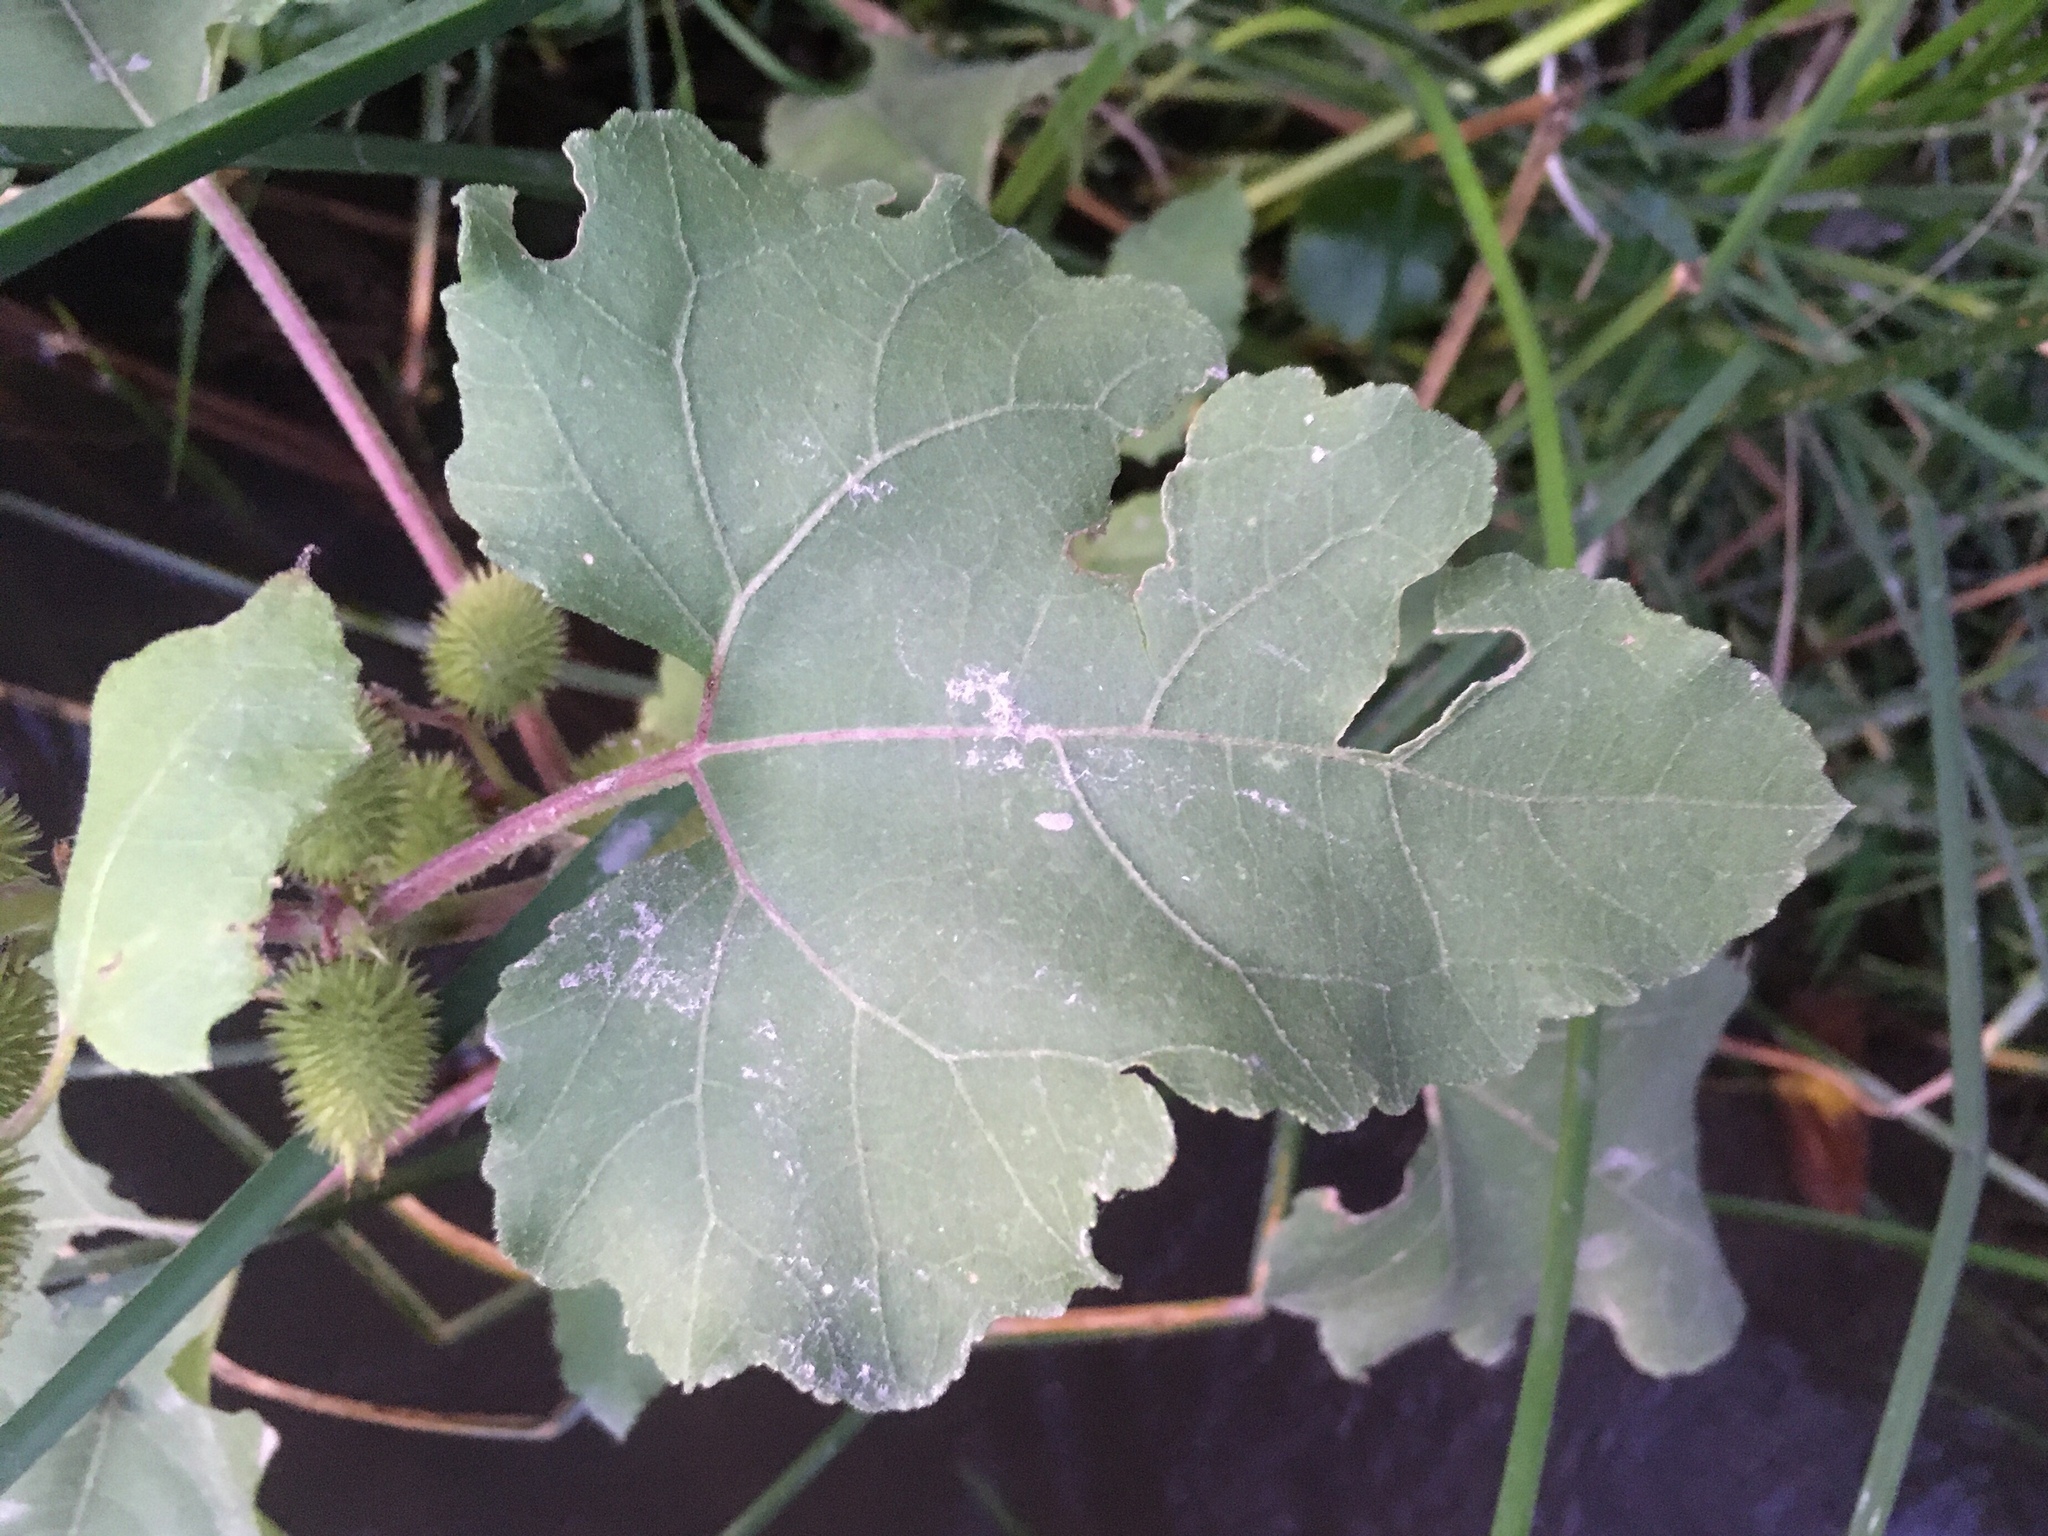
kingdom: Plantae
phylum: Tracheophyta
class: Magnoliopsida
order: Asterales
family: Asteraceae
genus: Xanthium
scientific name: Xanthium strumarium
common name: Rough cocklebur
